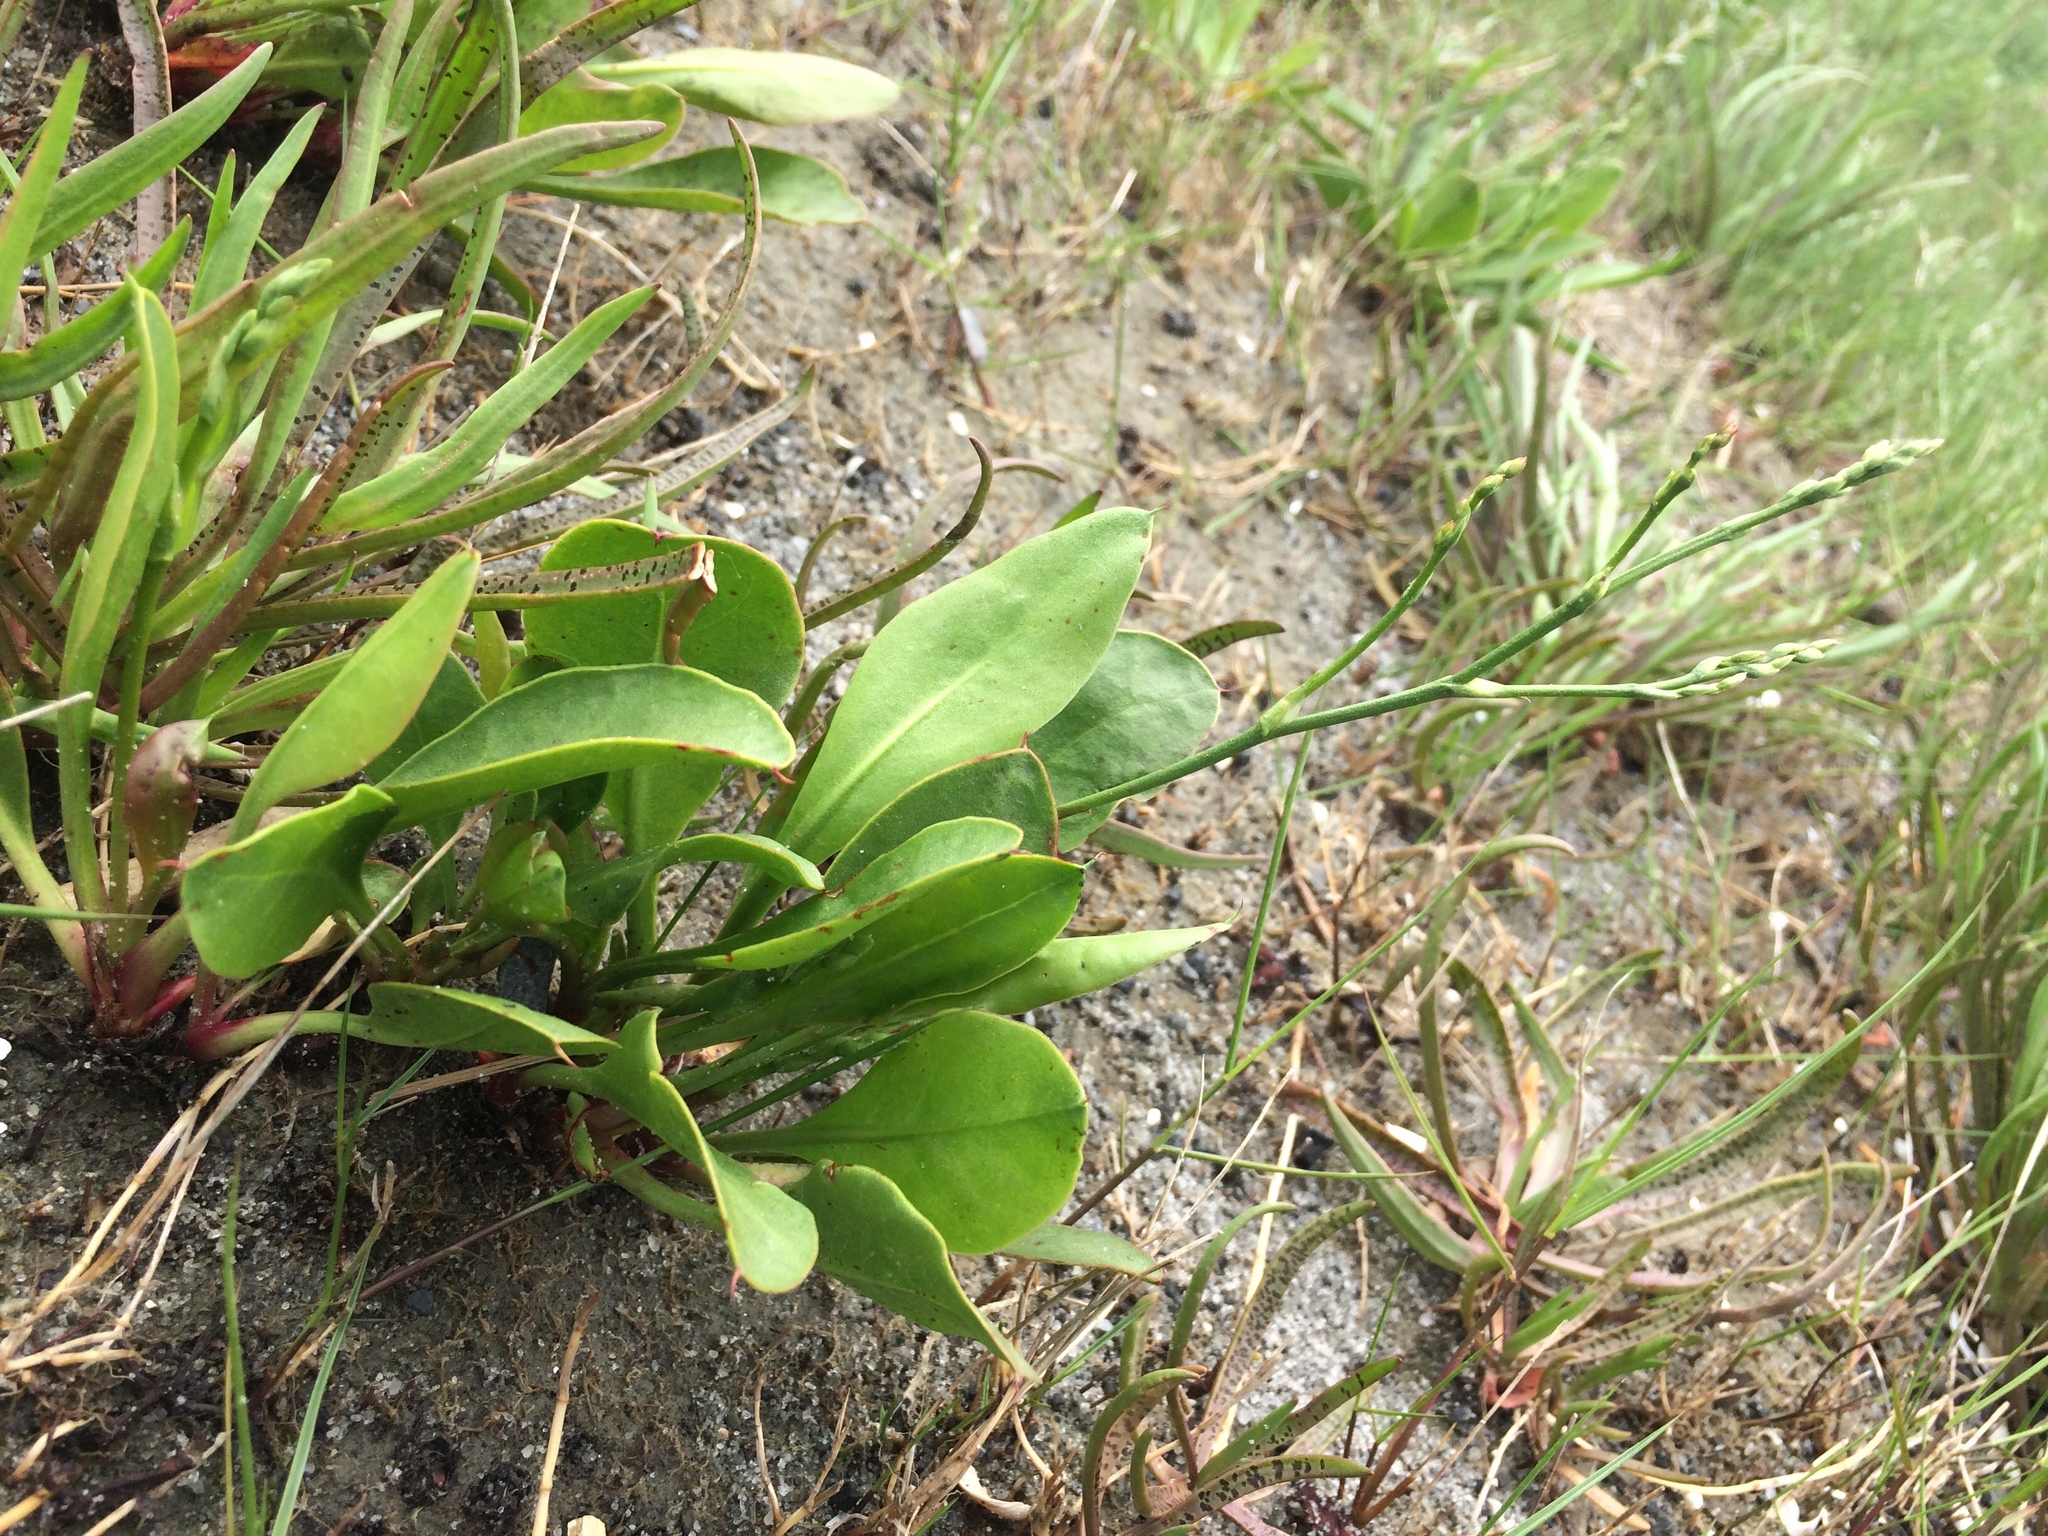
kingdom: Plantae
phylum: Tracheophyta
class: Magnoliopsida
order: Caryophyllales
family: Plumbaginaceae
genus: Limonium
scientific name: Limonium carolinianum
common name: Carolina sea lavender
